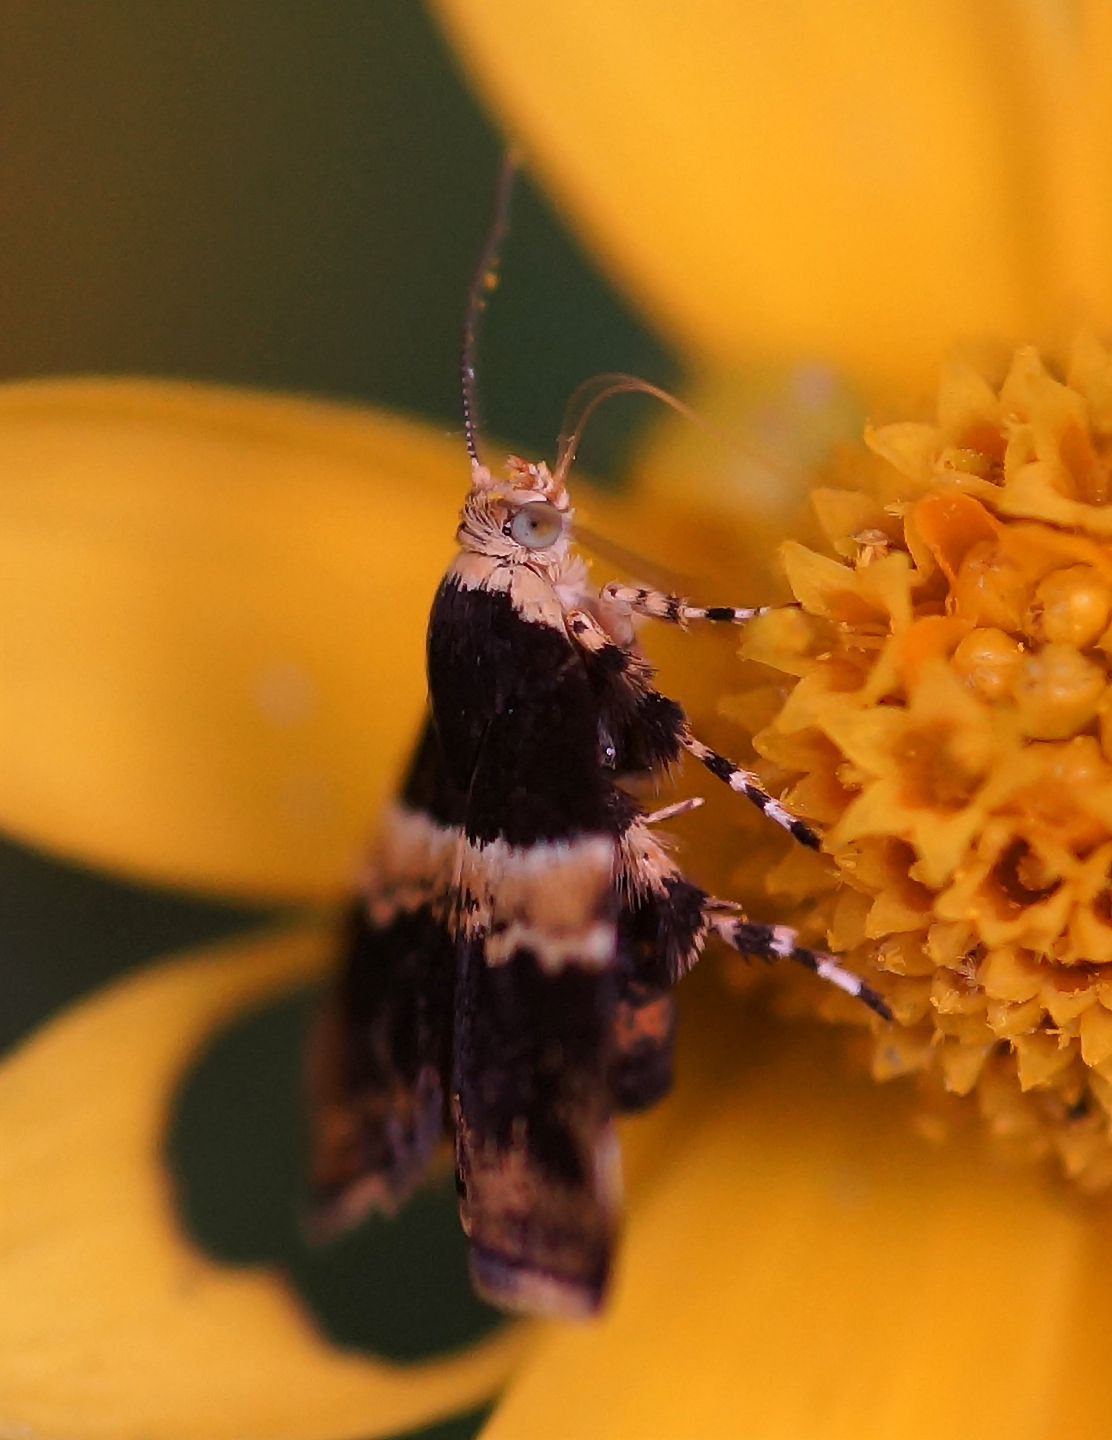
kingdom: Animalia
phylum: Arthropoda
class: Insecta
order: Lepidoptera
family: Choreutidae
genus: Choreutis
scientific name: Choreutis basalis
